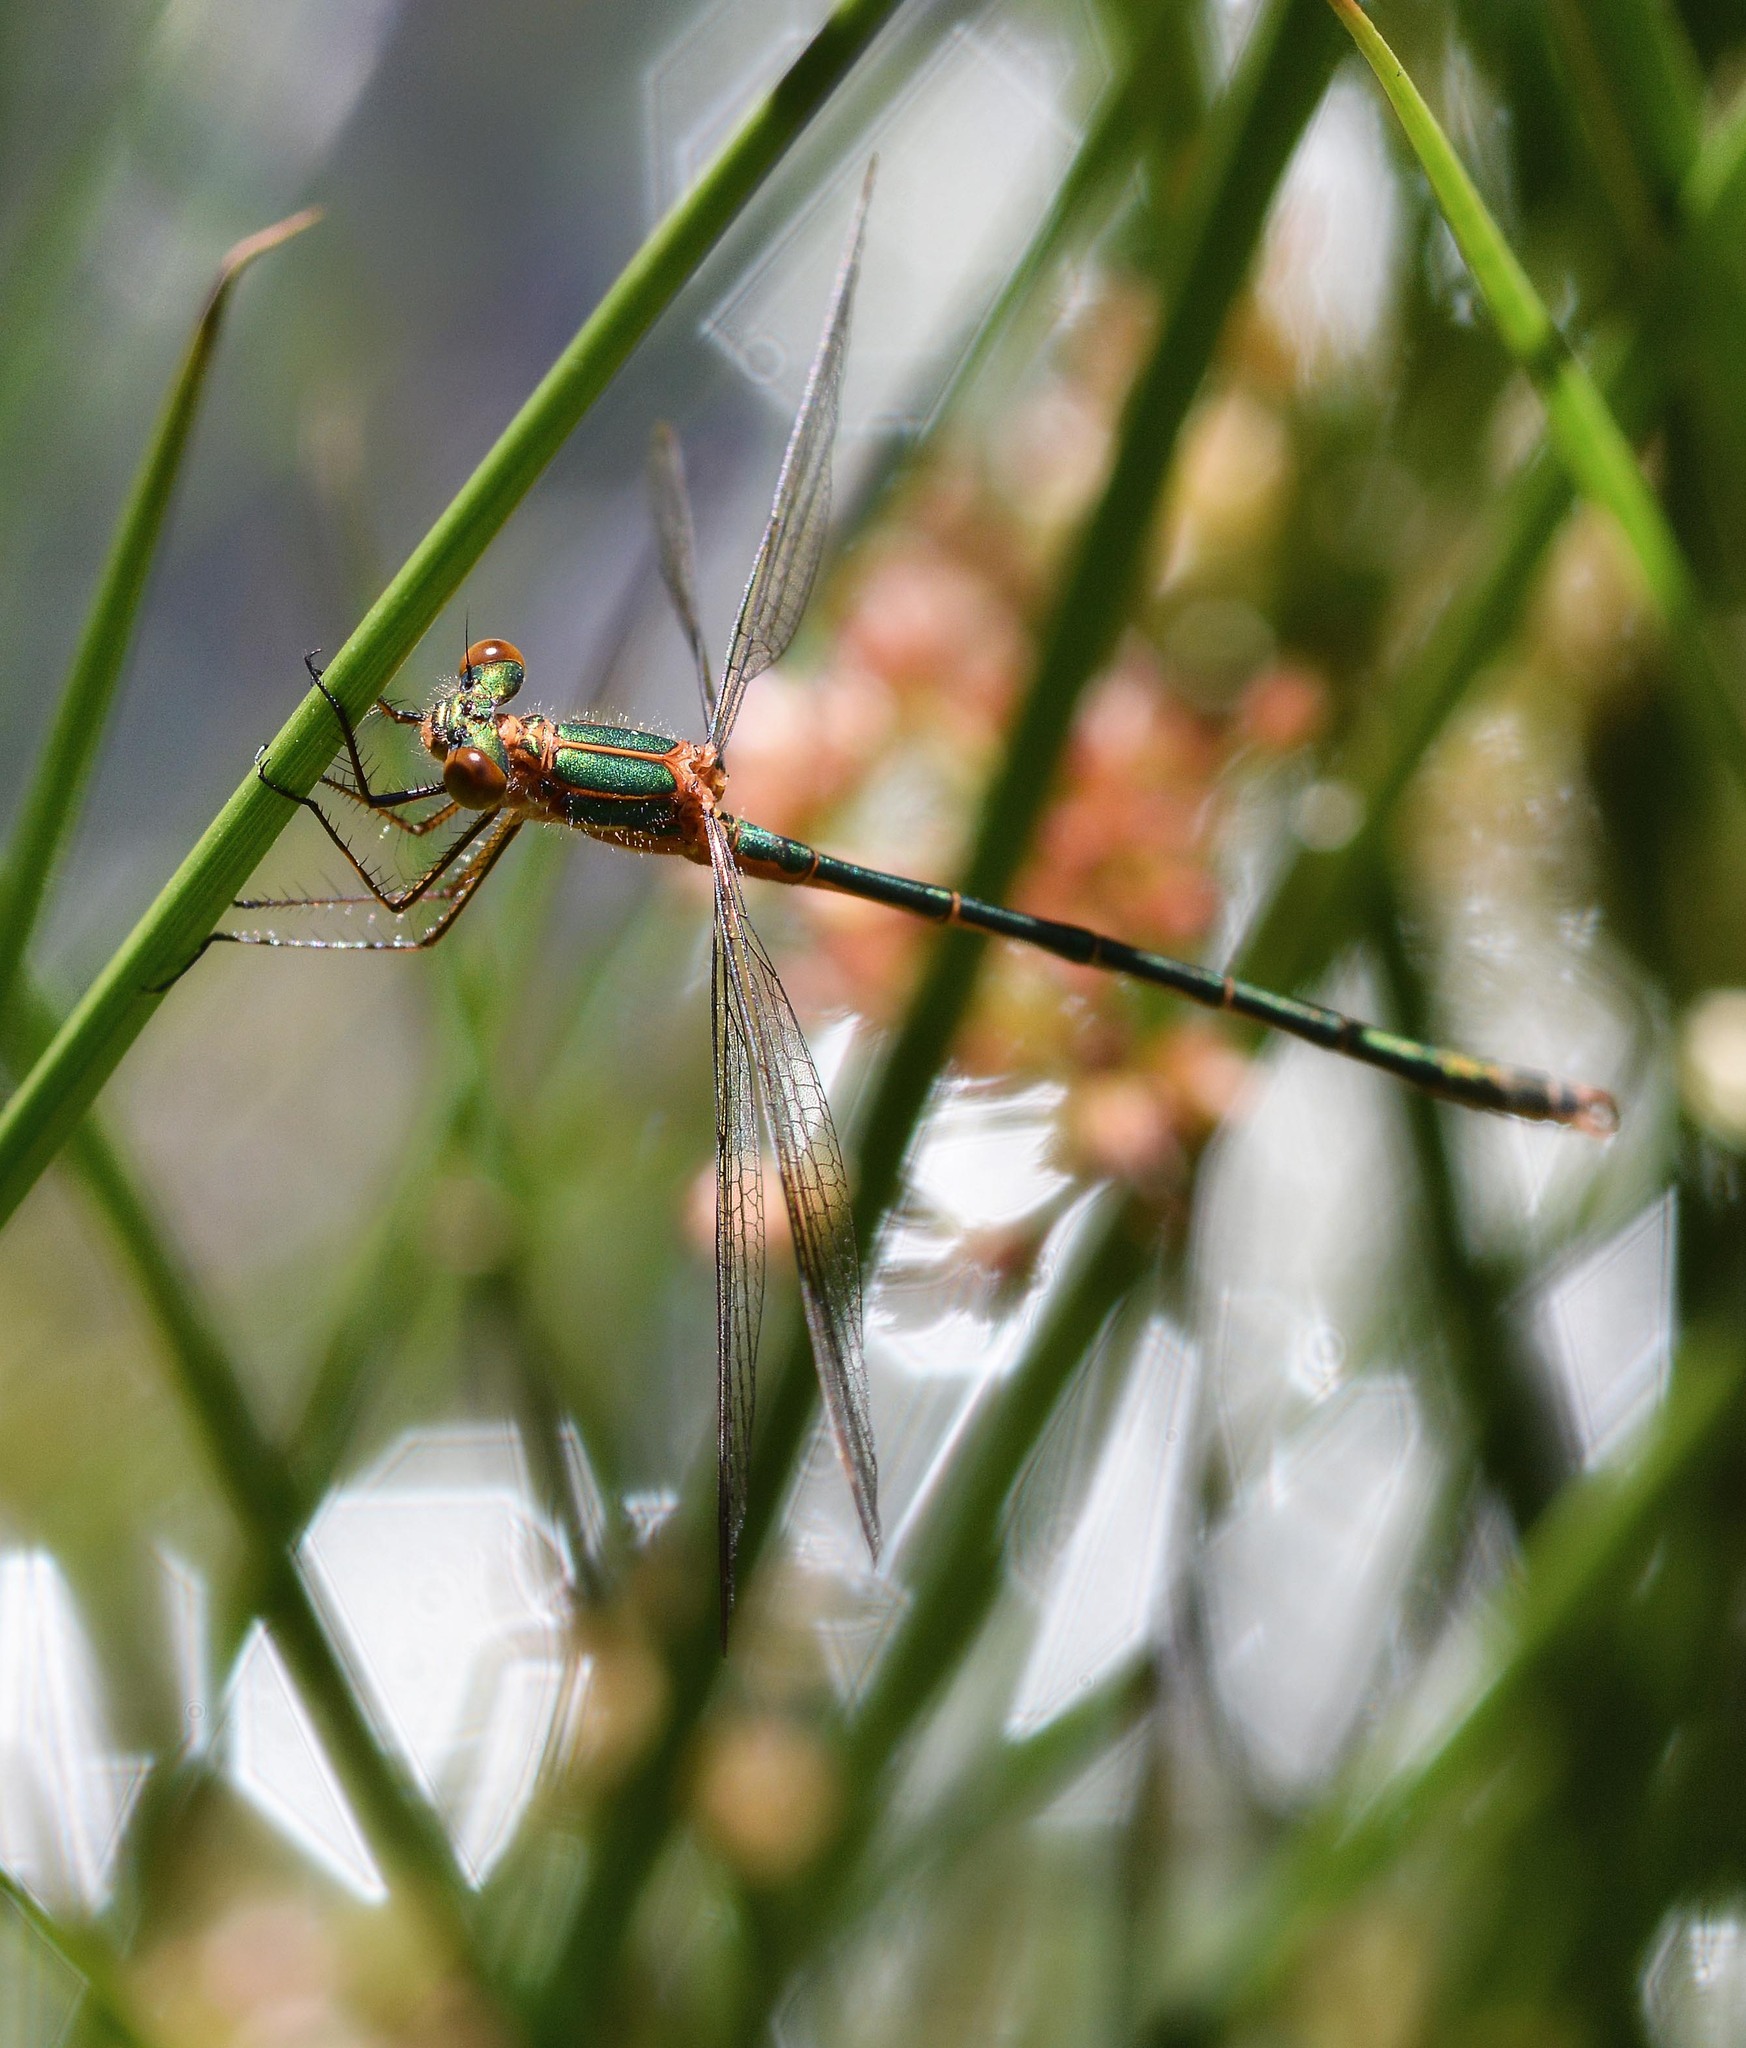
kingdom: Animalia
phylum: Arthropoda
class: Insecta
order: Odonata
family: Lestidae
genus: Lestes
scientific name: Lestes sponsa
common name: Common spreadwing
